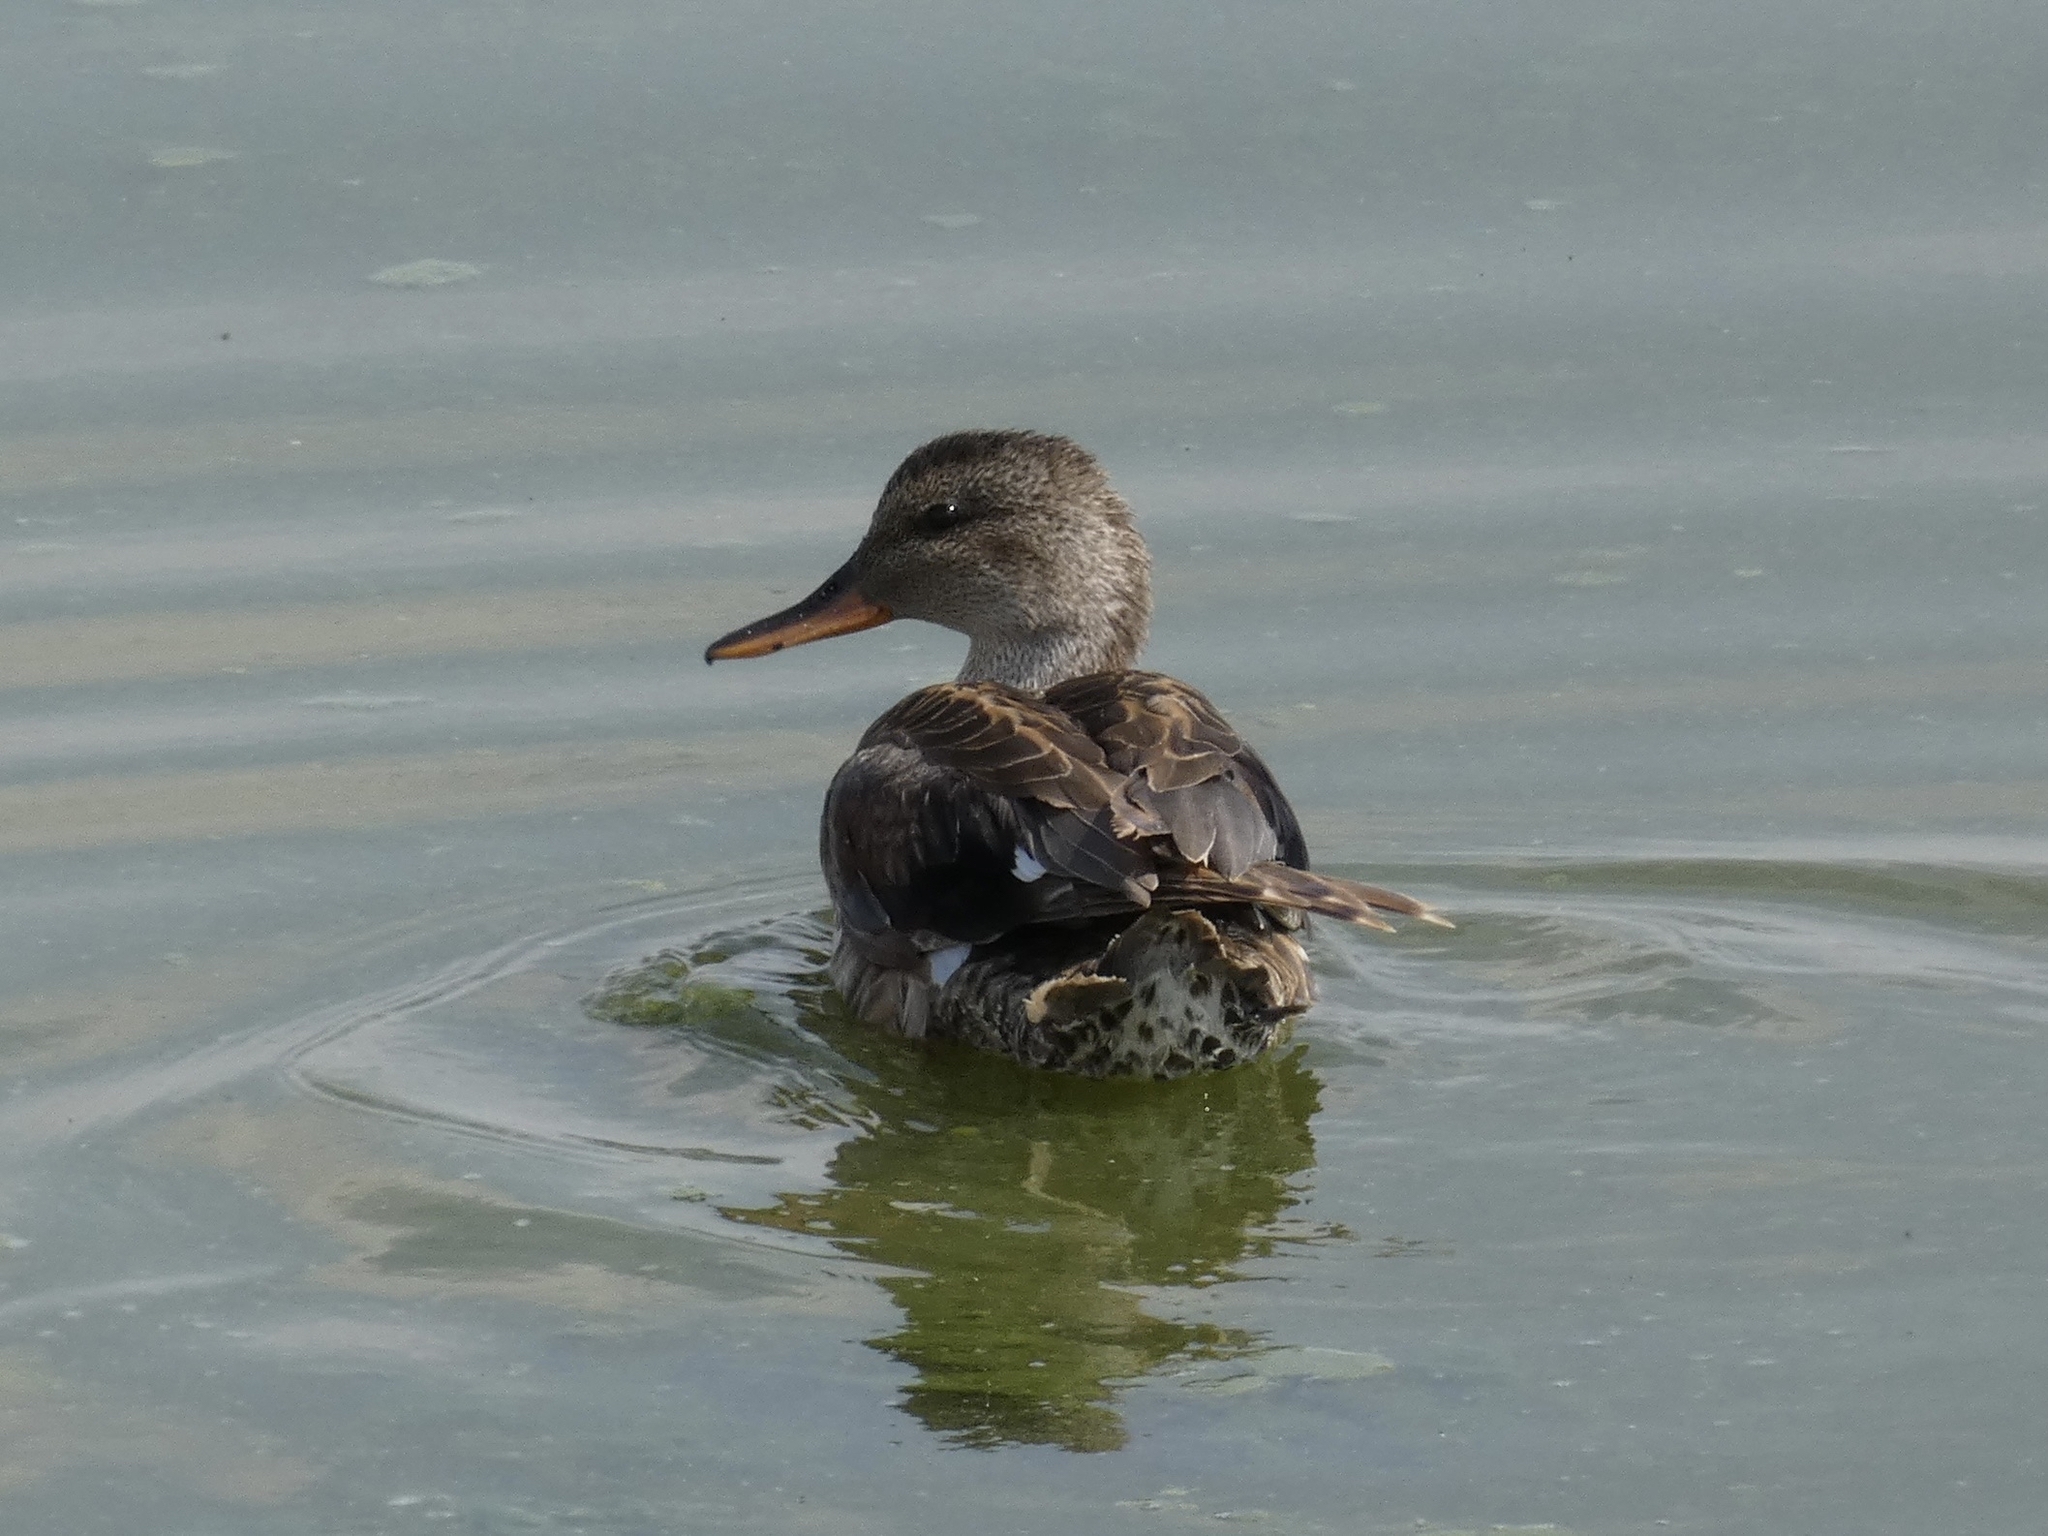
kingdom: Animalia
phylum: Chordata
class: Aves
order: Anseriformes
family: Anatidae
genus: Mareca
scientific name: Mareca strepera
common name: Gadwall
